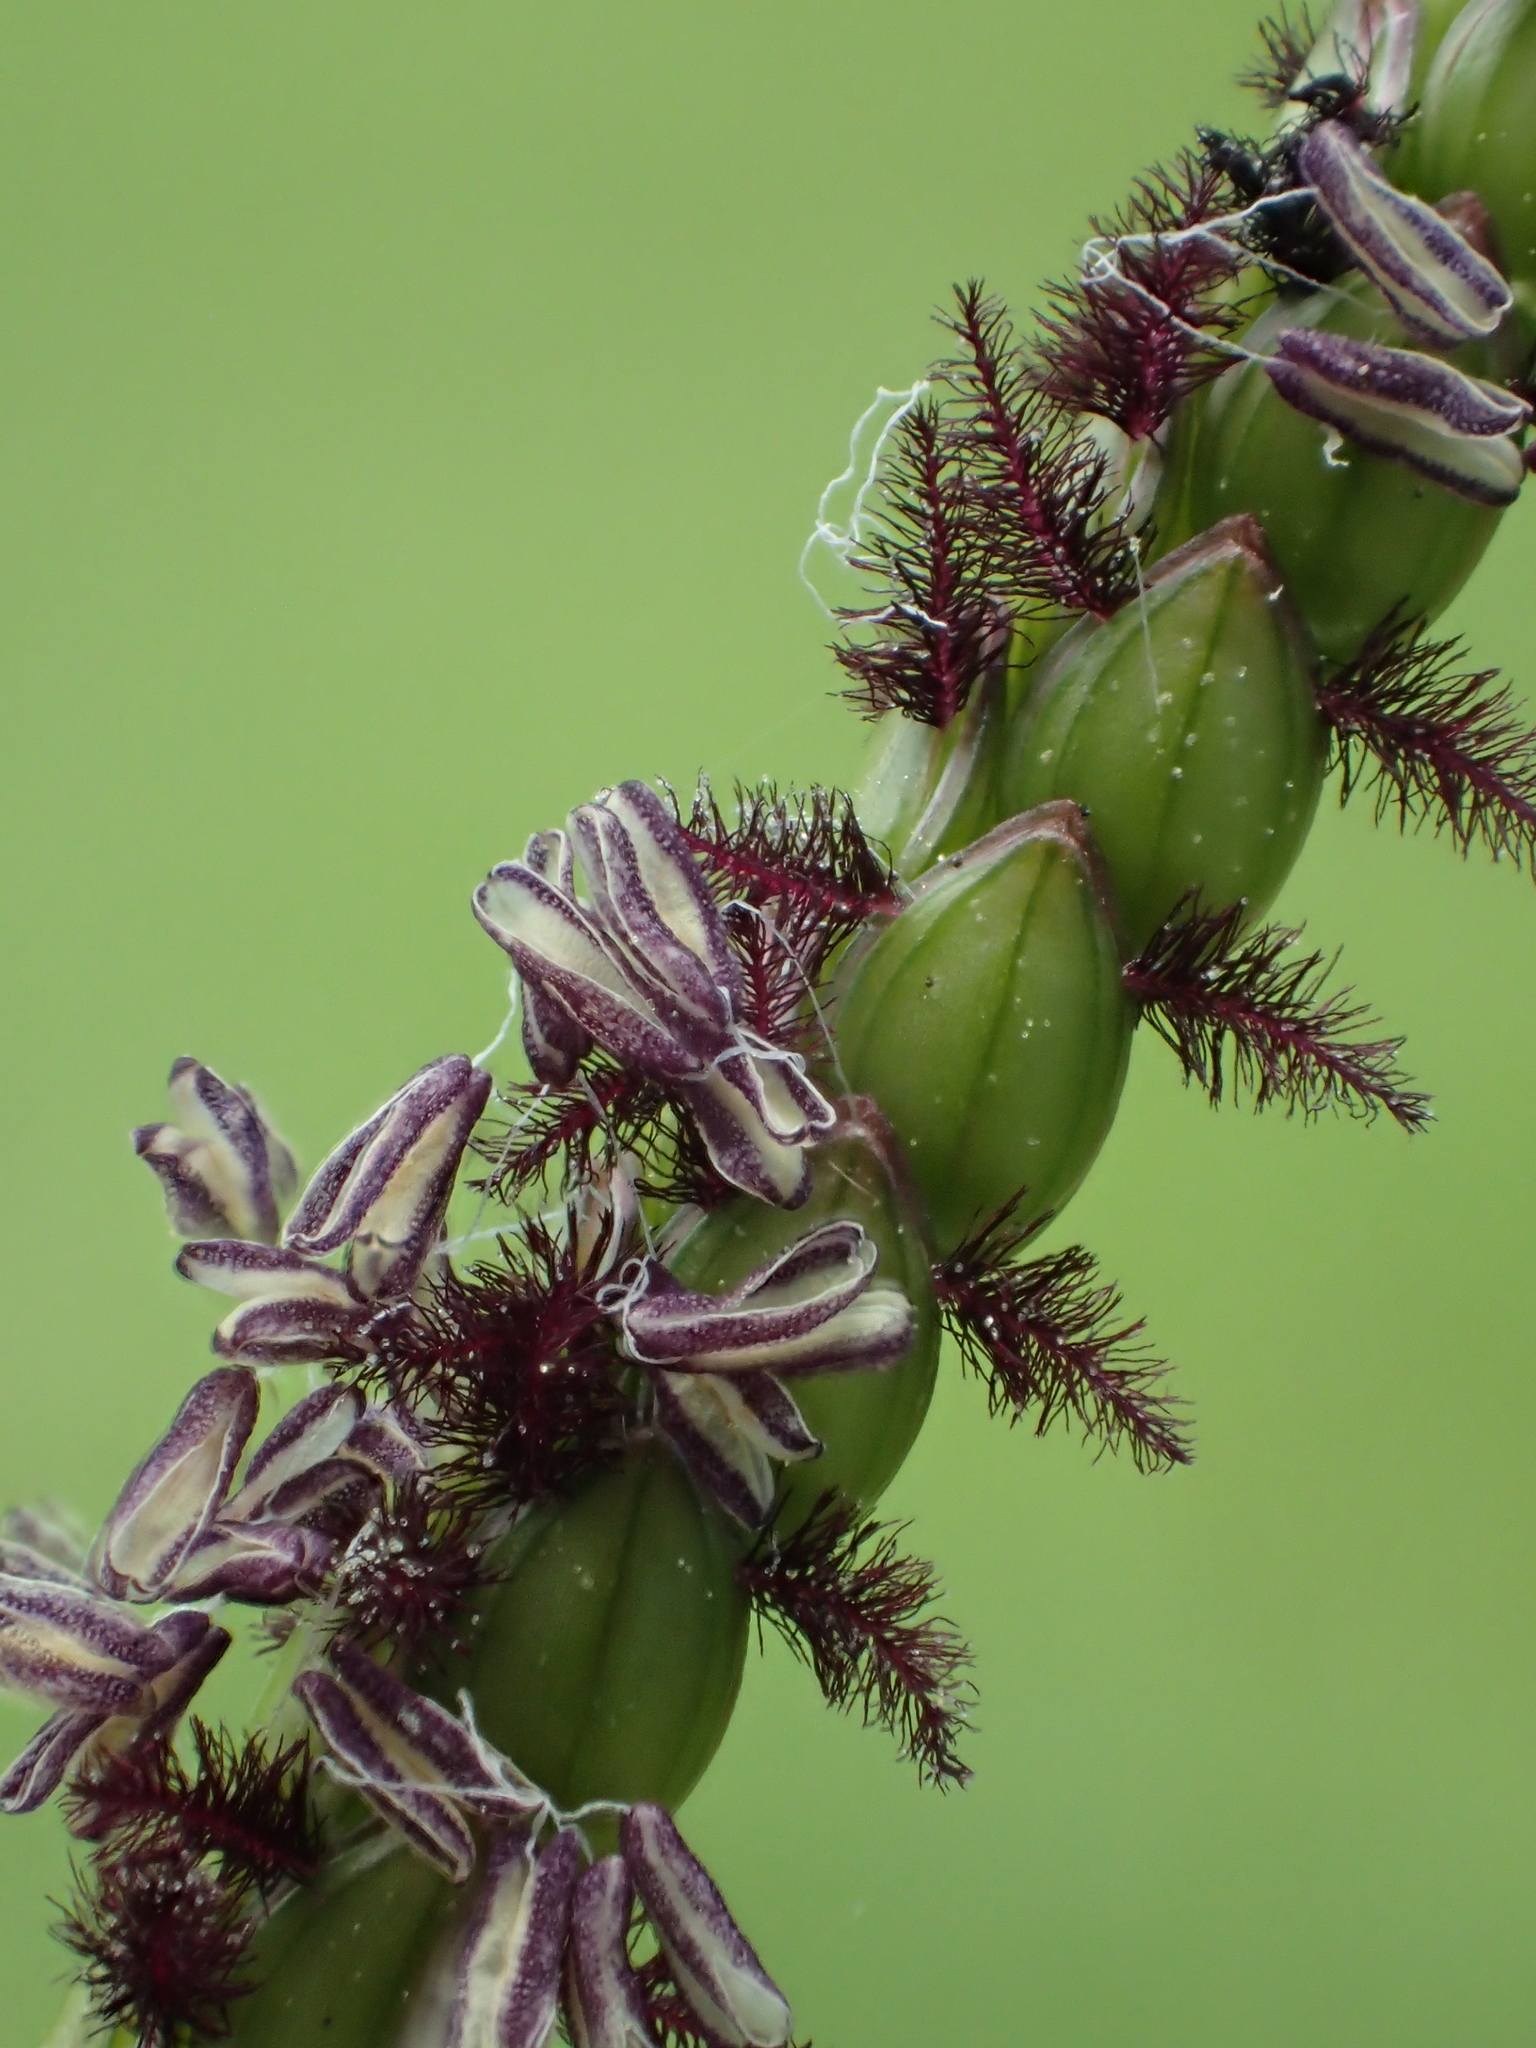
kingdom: Plantae
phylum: Tracheophyta
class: Liliopsida
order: Poales
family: Poaceae
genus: Paspalum
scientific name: Paspalum notatum
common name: Bahiagrass
